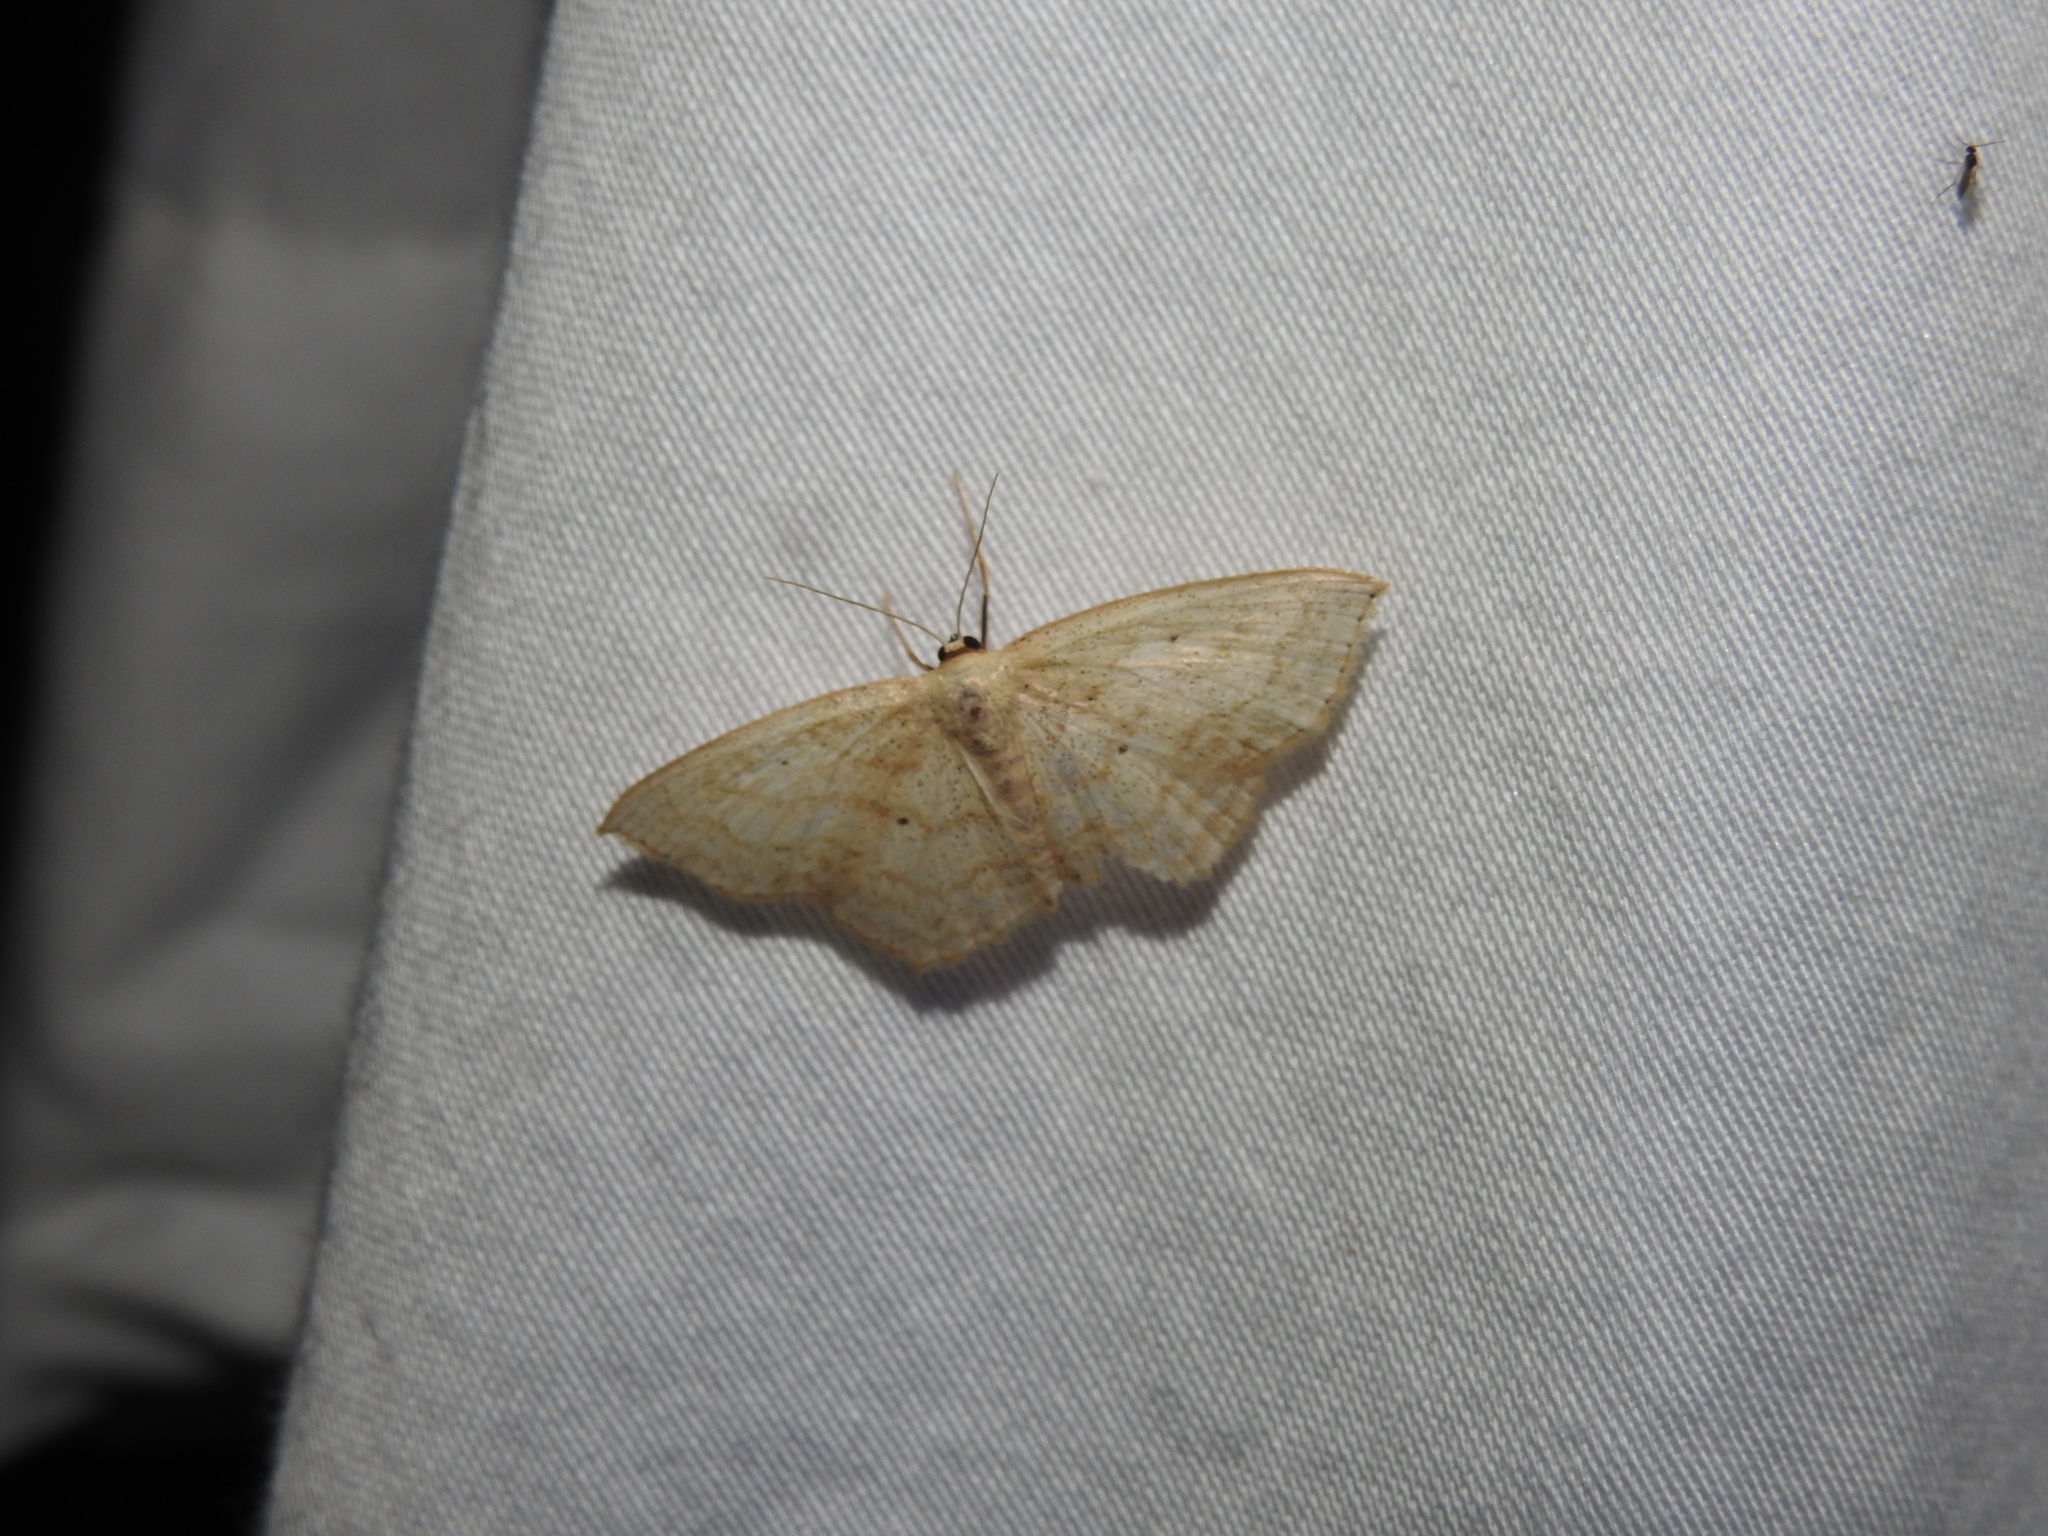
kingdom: Animalia
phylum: Arthropoda
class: Insecta
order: Lepidoptera
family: Geometridae
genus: Scopula
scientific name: Scopula limboundata
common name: Large lace border
